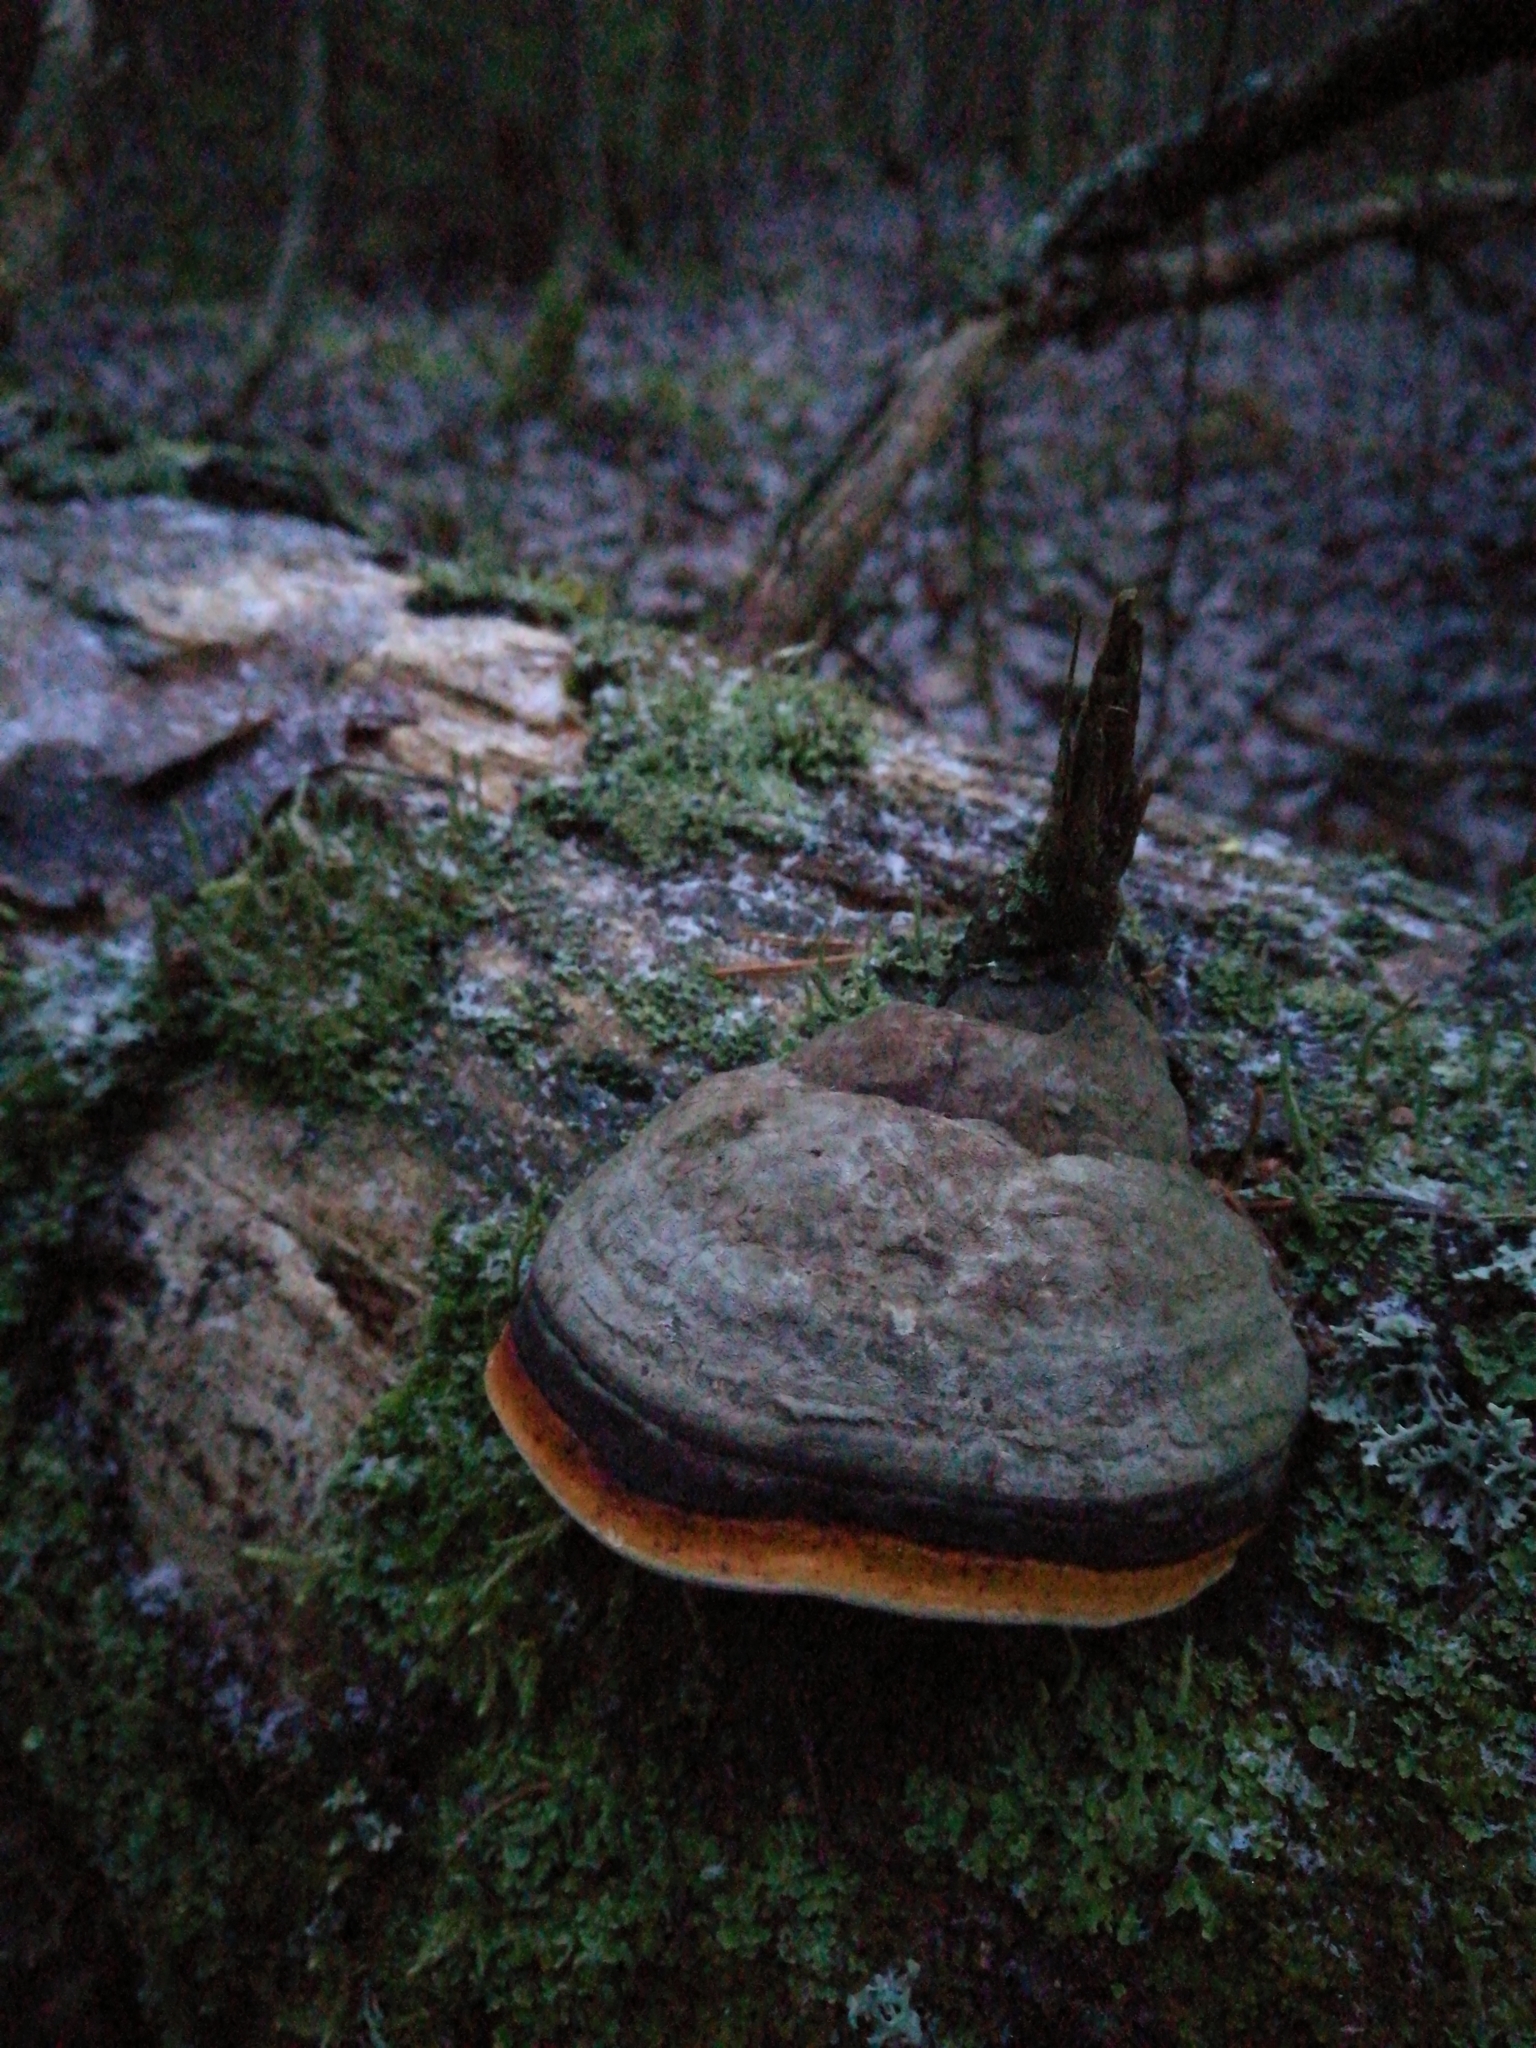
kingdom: Fungi
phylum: Basidiomycota
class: Agaricomycetes
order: Polyporales
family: Fomitopsidaceae
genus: Fomitopsis
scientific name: Fomitopsis pinicola
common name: Red-belted bracket
